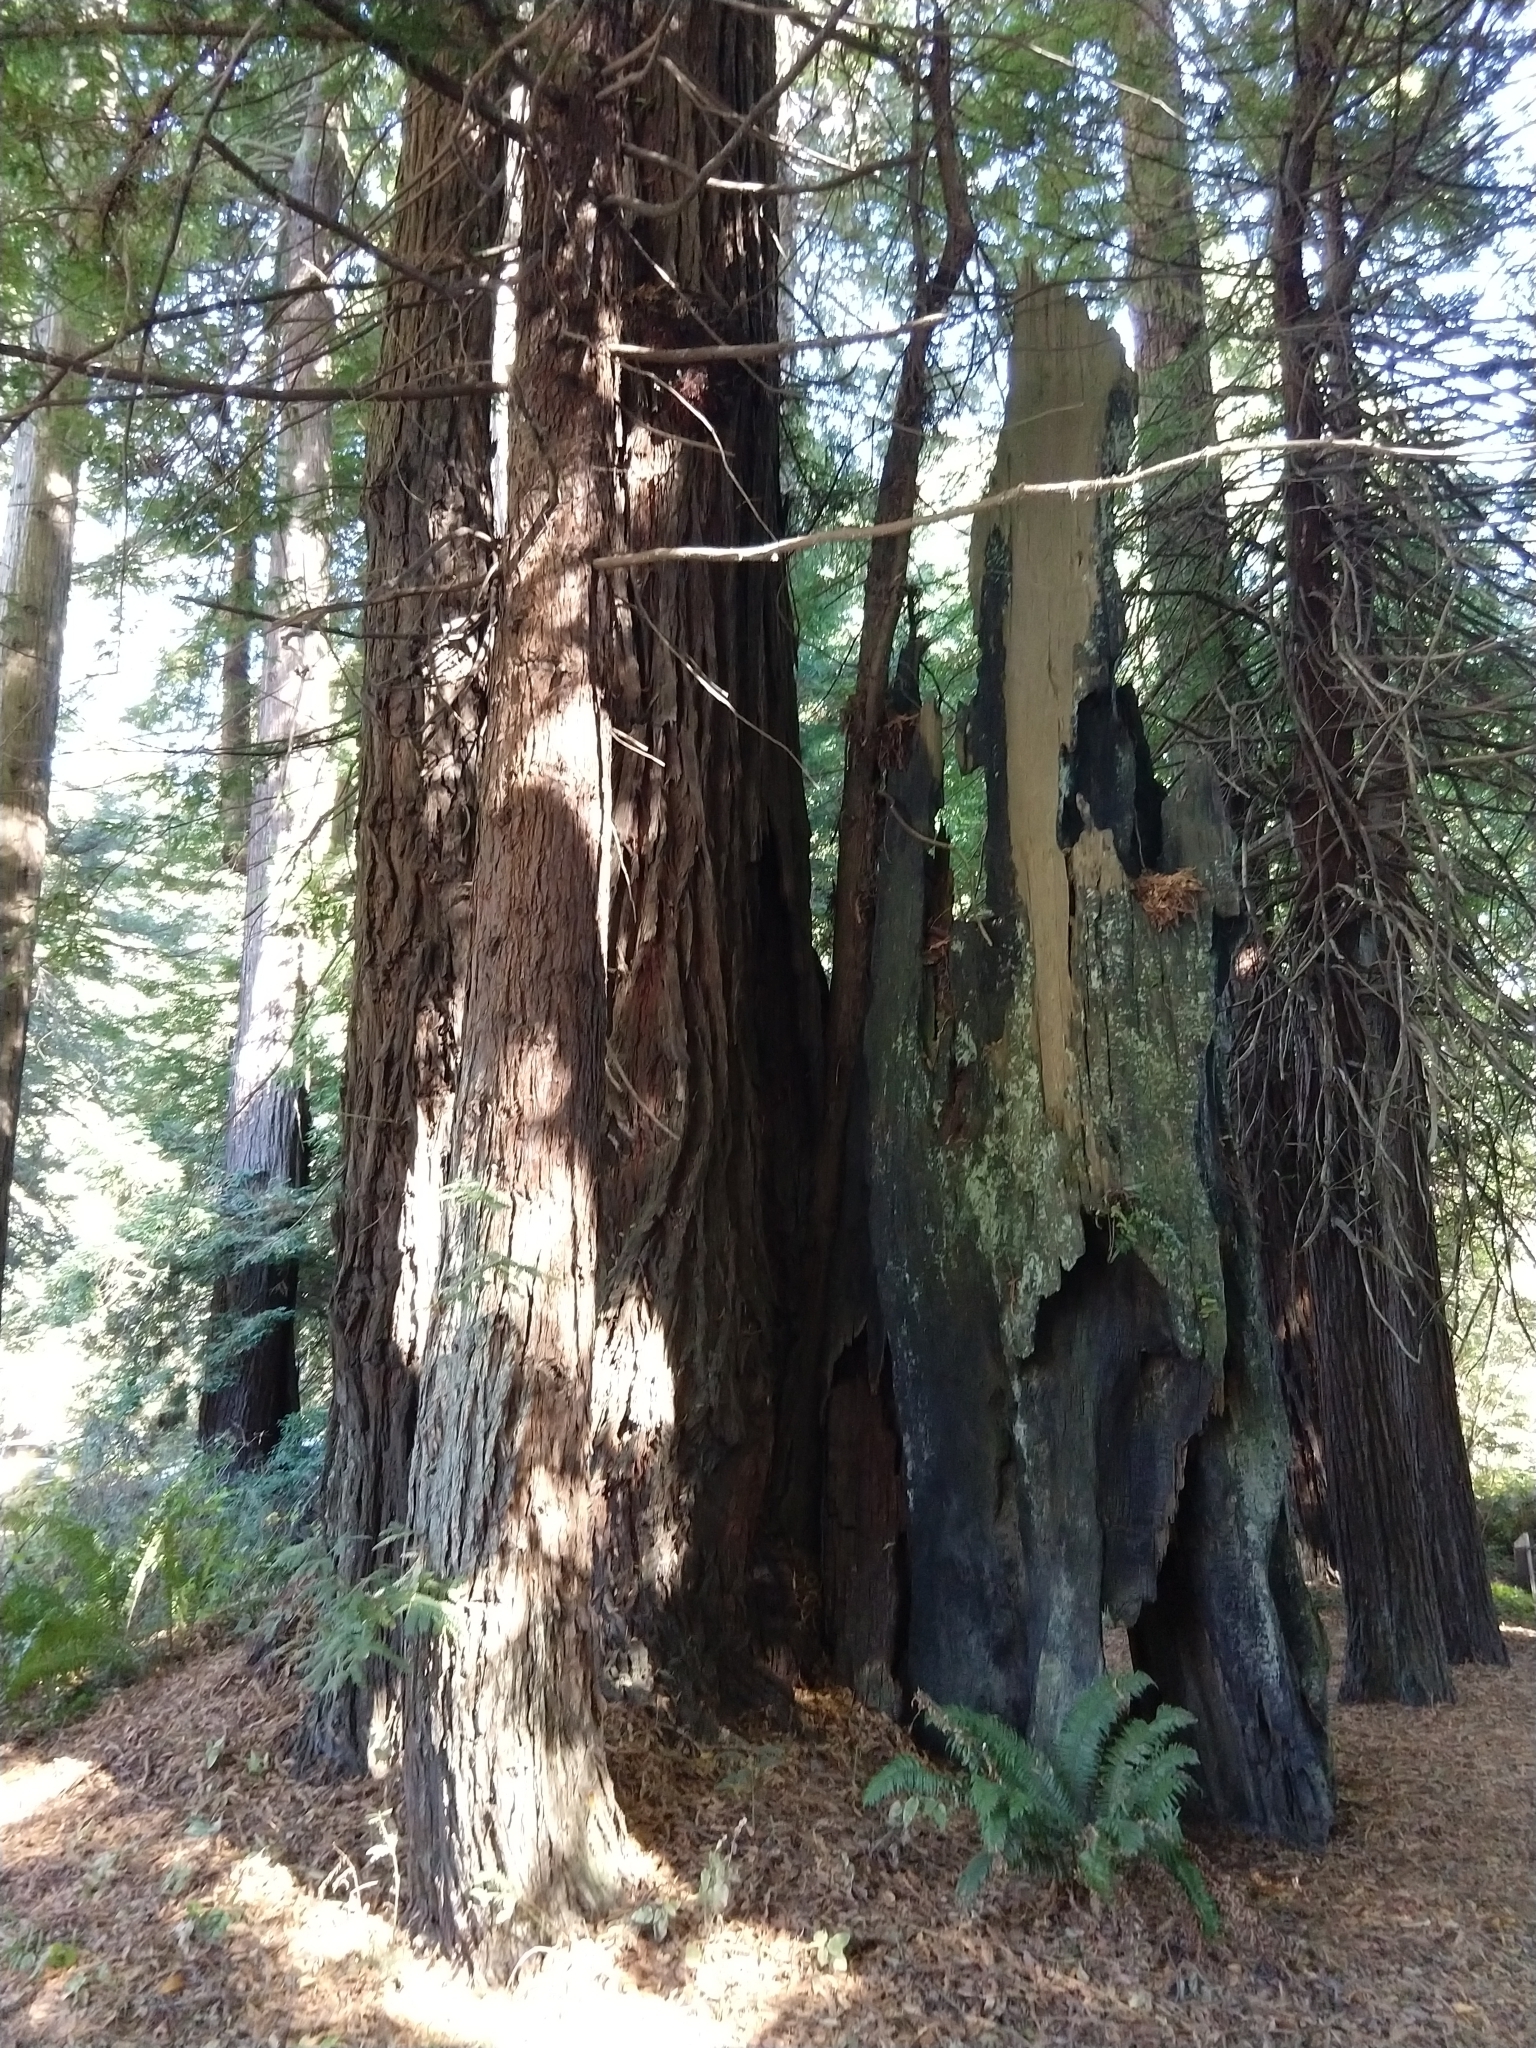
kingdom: Plantae
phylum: Tracheophyta
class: Pinopsida
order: Pinales
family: Cupressaceae
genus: Sequoia
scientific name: Sequoia sempervirens
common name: Coast redwood
